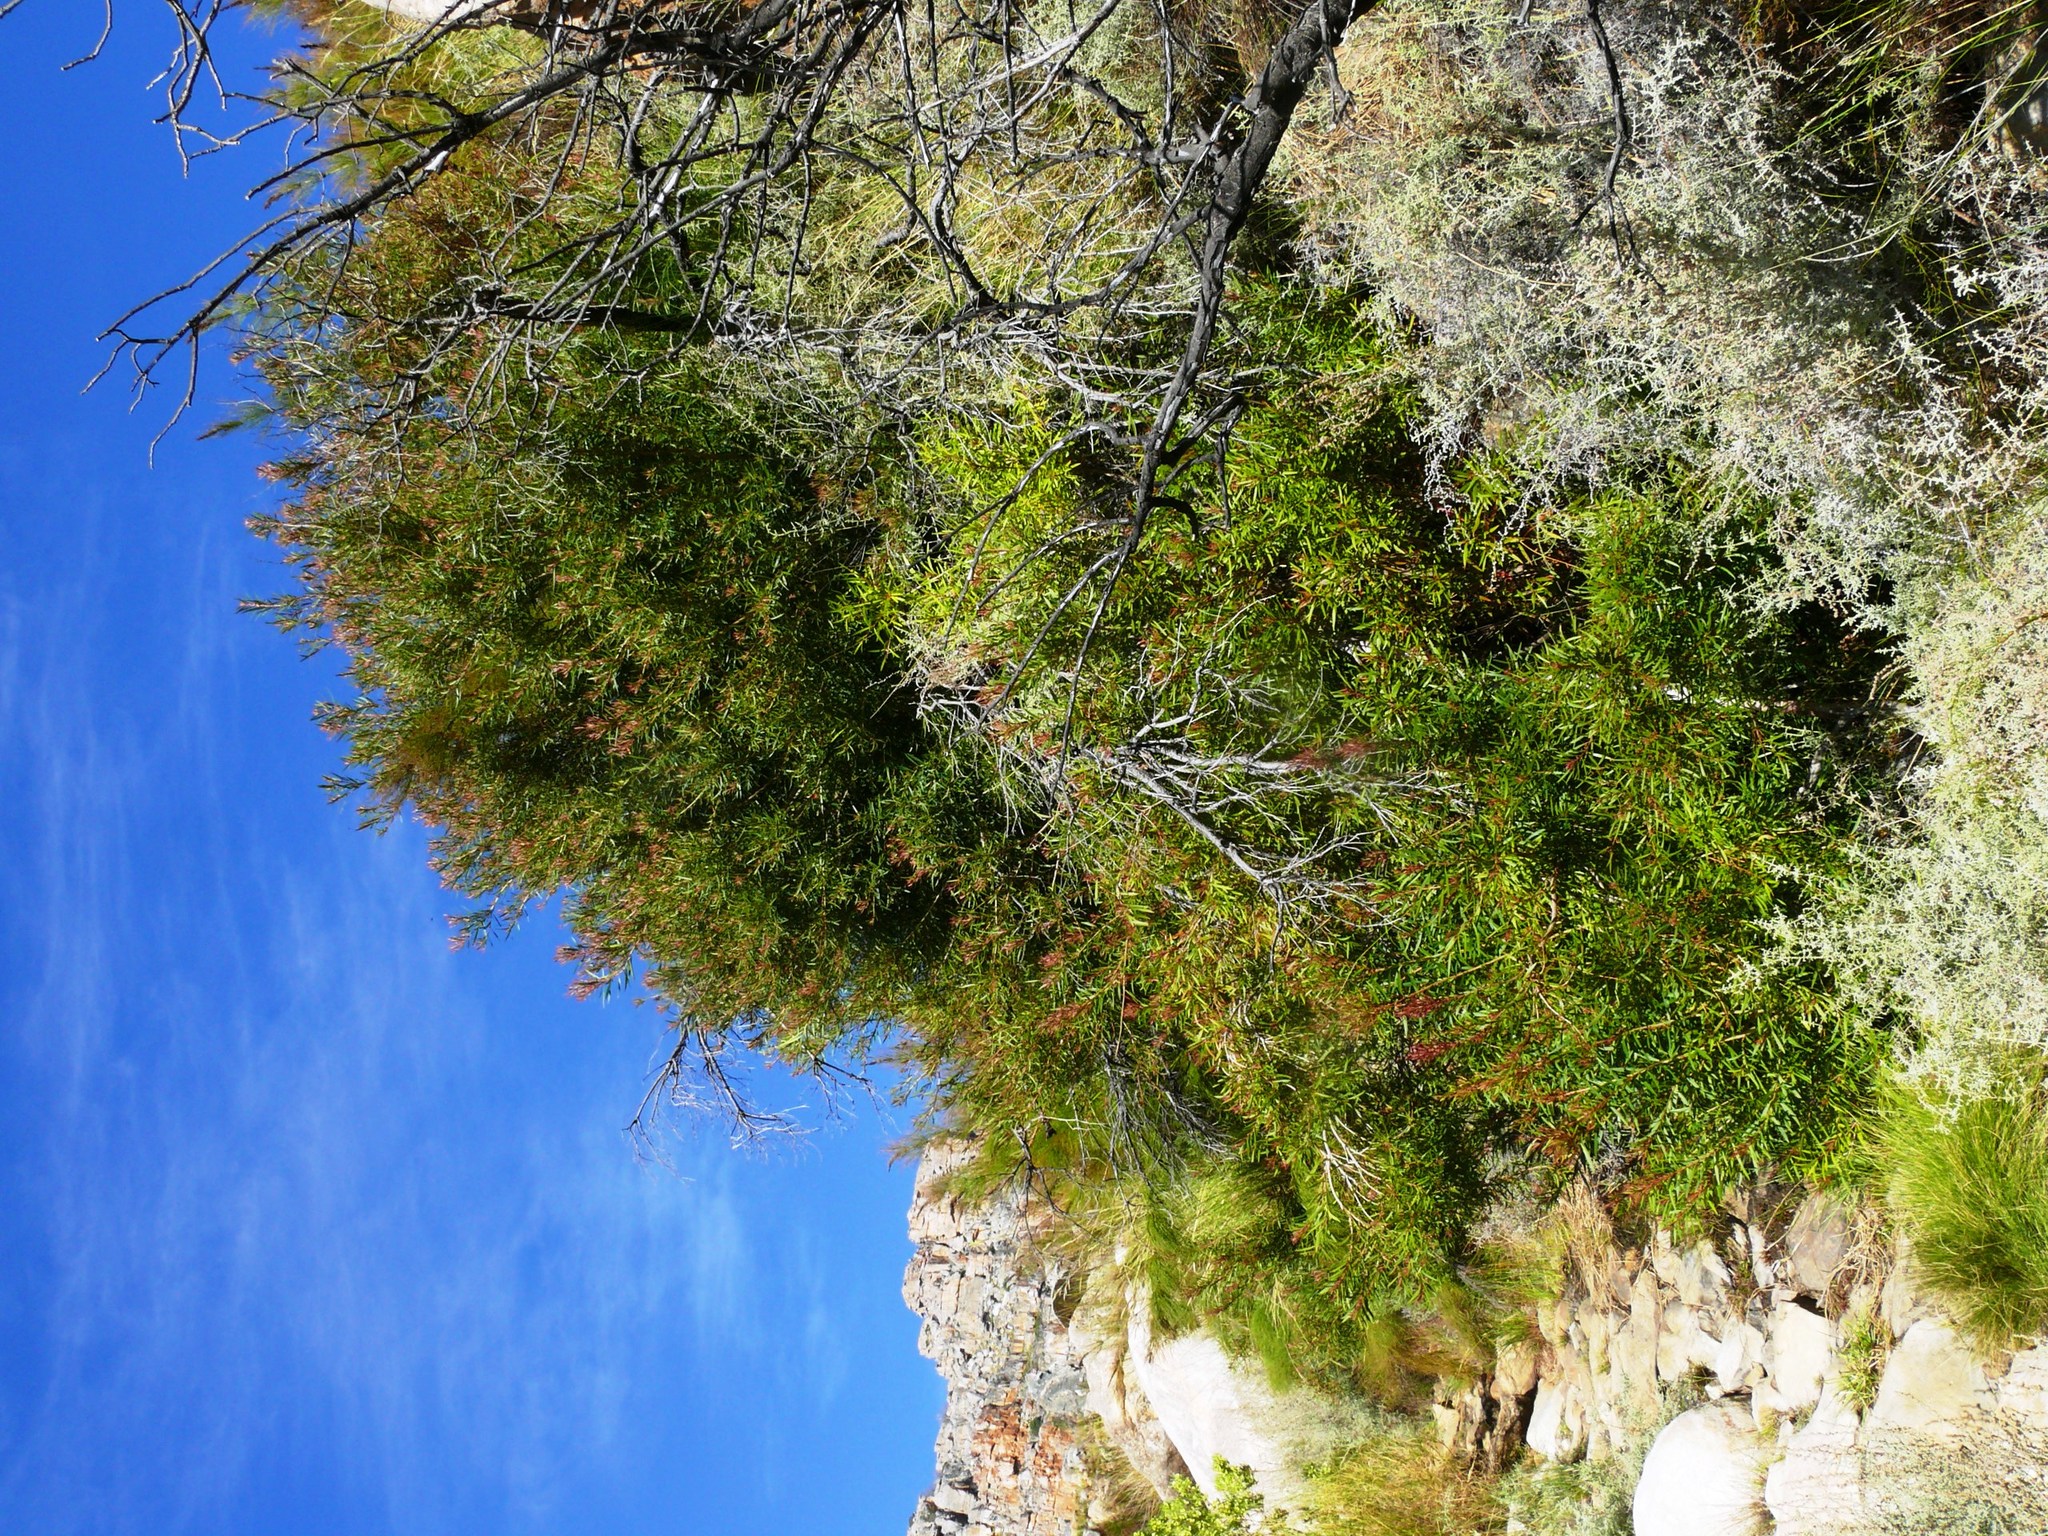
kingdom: Plantae
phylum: Tracheophyta
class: Magnoliopsida
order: Myrtales
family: Myrtaceae
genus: Callistemon
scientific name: Callistemon lanceolatus
